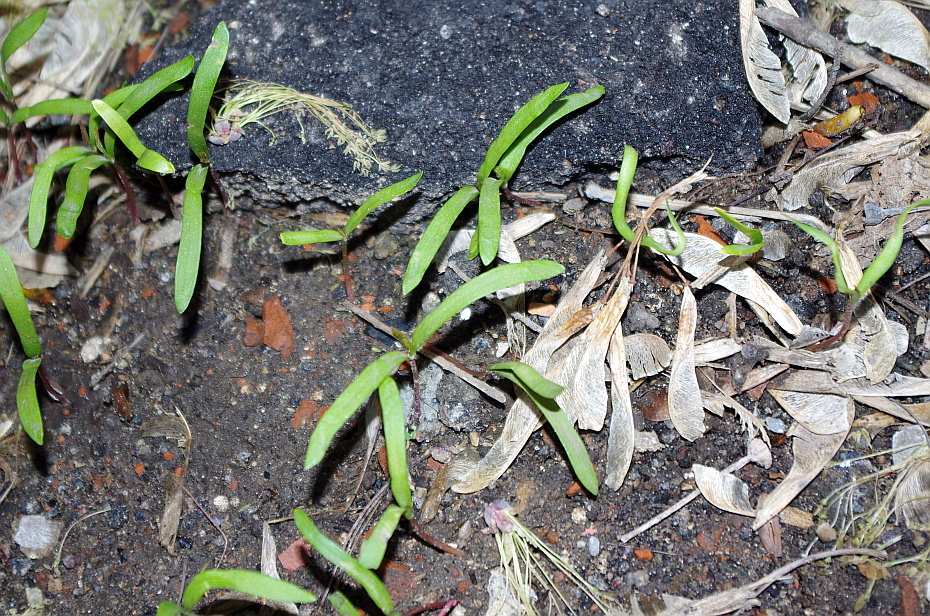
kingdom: Plantae
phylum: Tracheophyta
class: Magnoliopsida
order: Sapindales
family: Sapindaceae
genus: Acer
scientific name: Acer negundo
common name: Ashleaf maple
